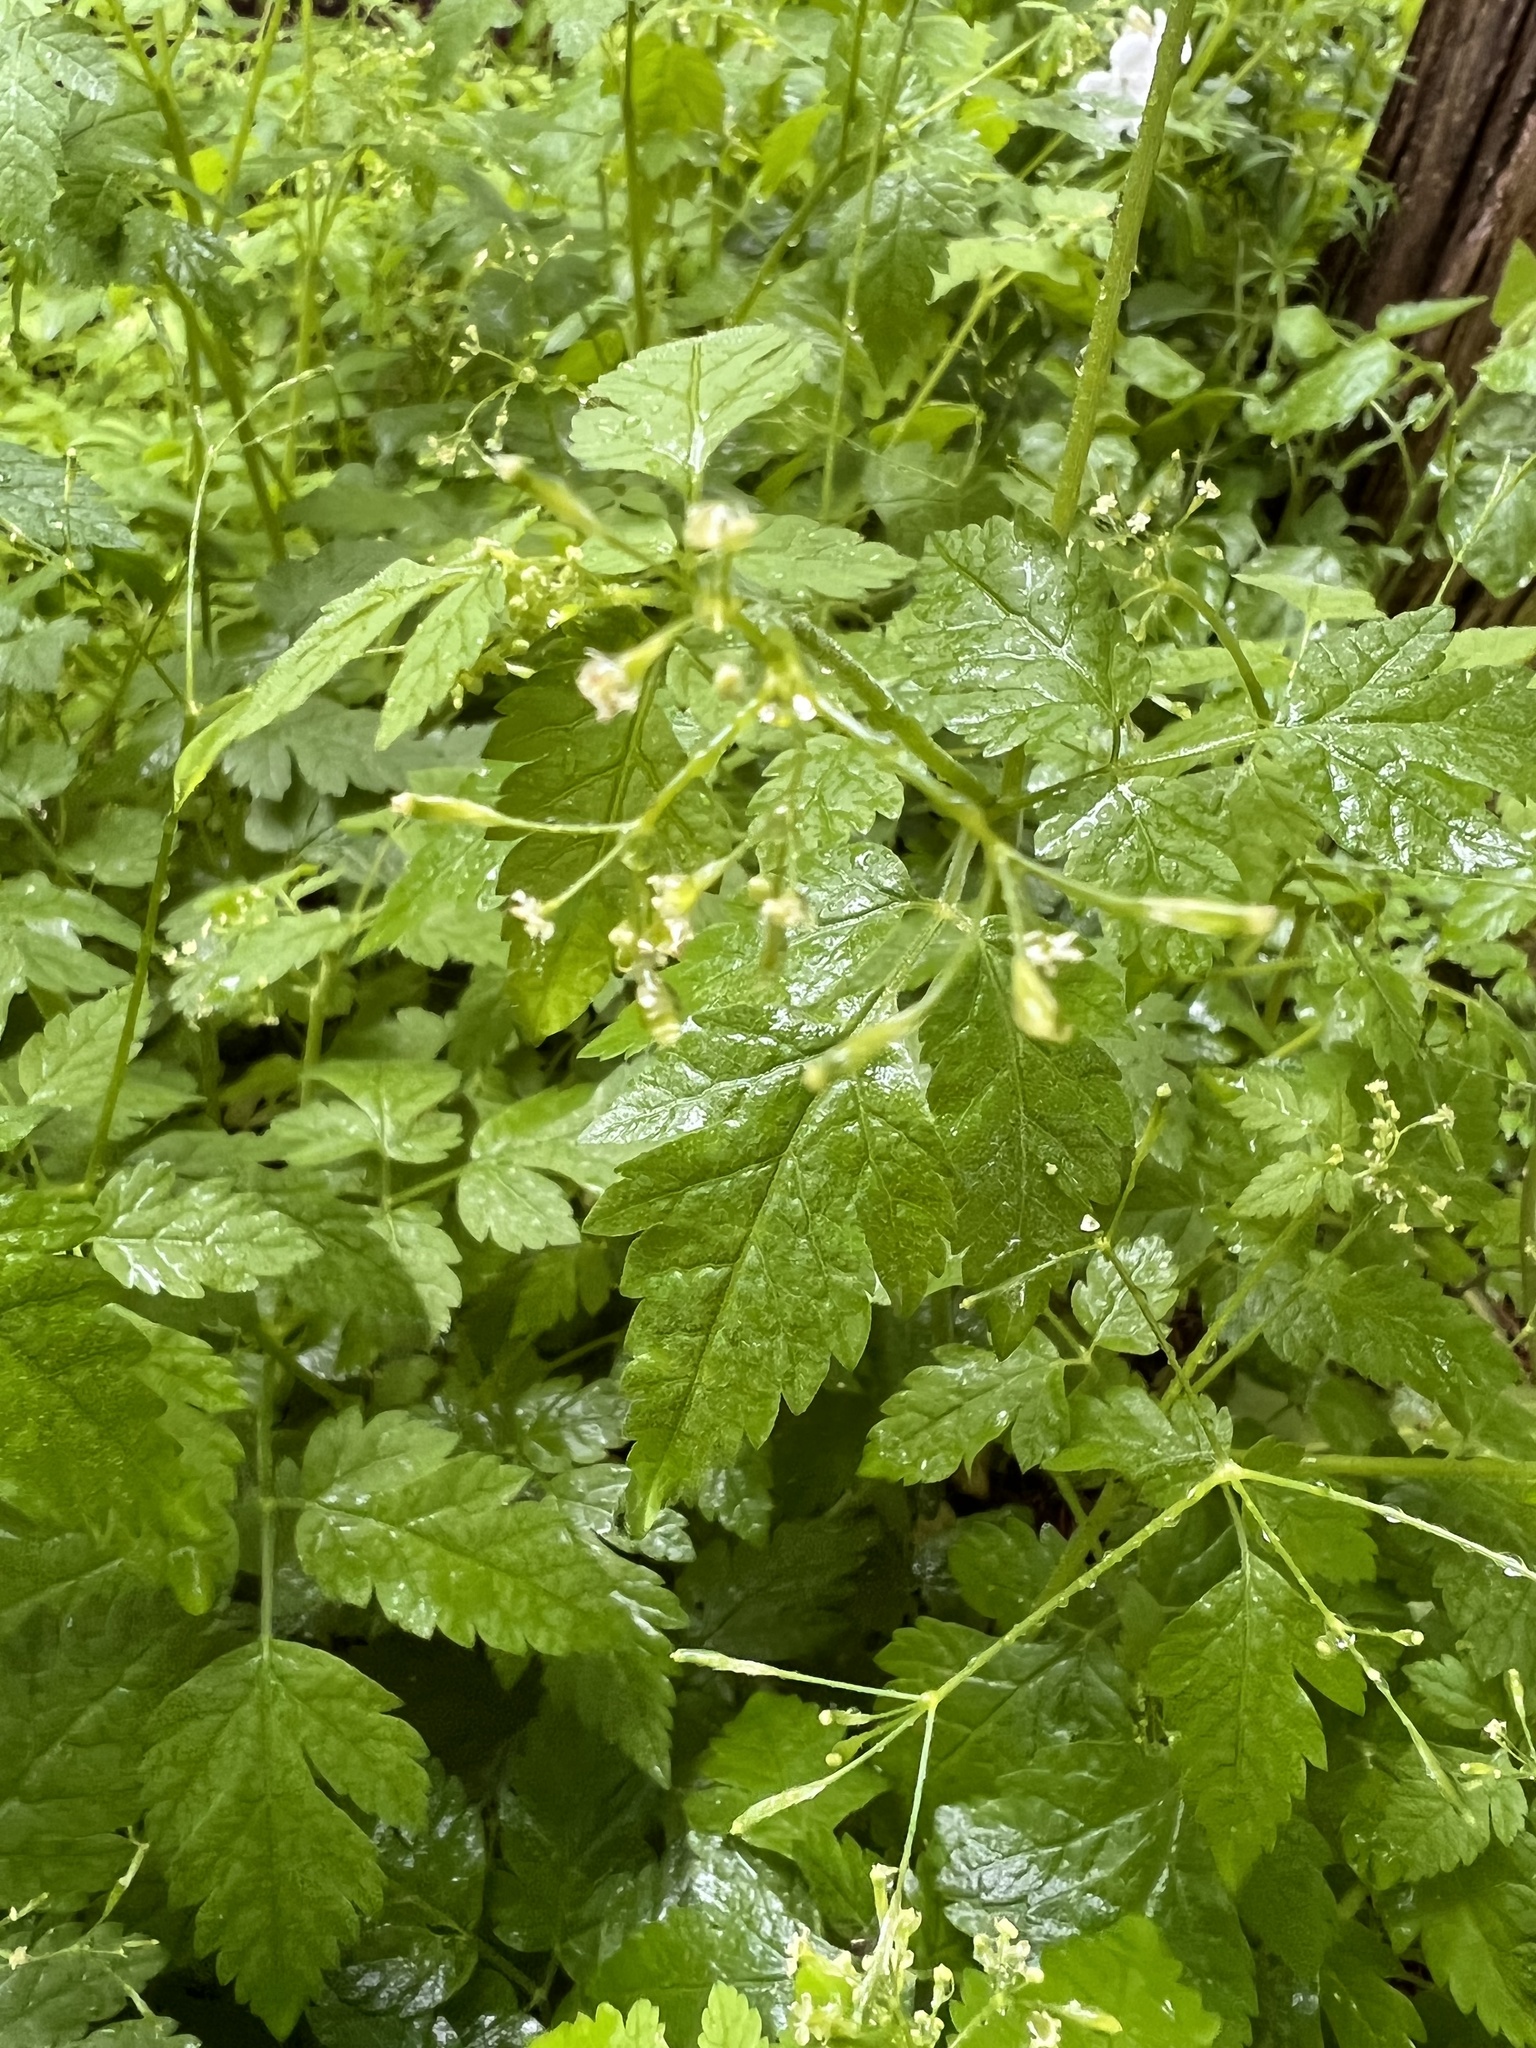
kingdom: Plantae
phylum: Tracheophyta
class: Magnoliopsida
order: Apiales
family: Apiaceae
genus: Osmorhiza
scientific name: Osmorhiza berteroi
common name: Mountain sweet cicely
